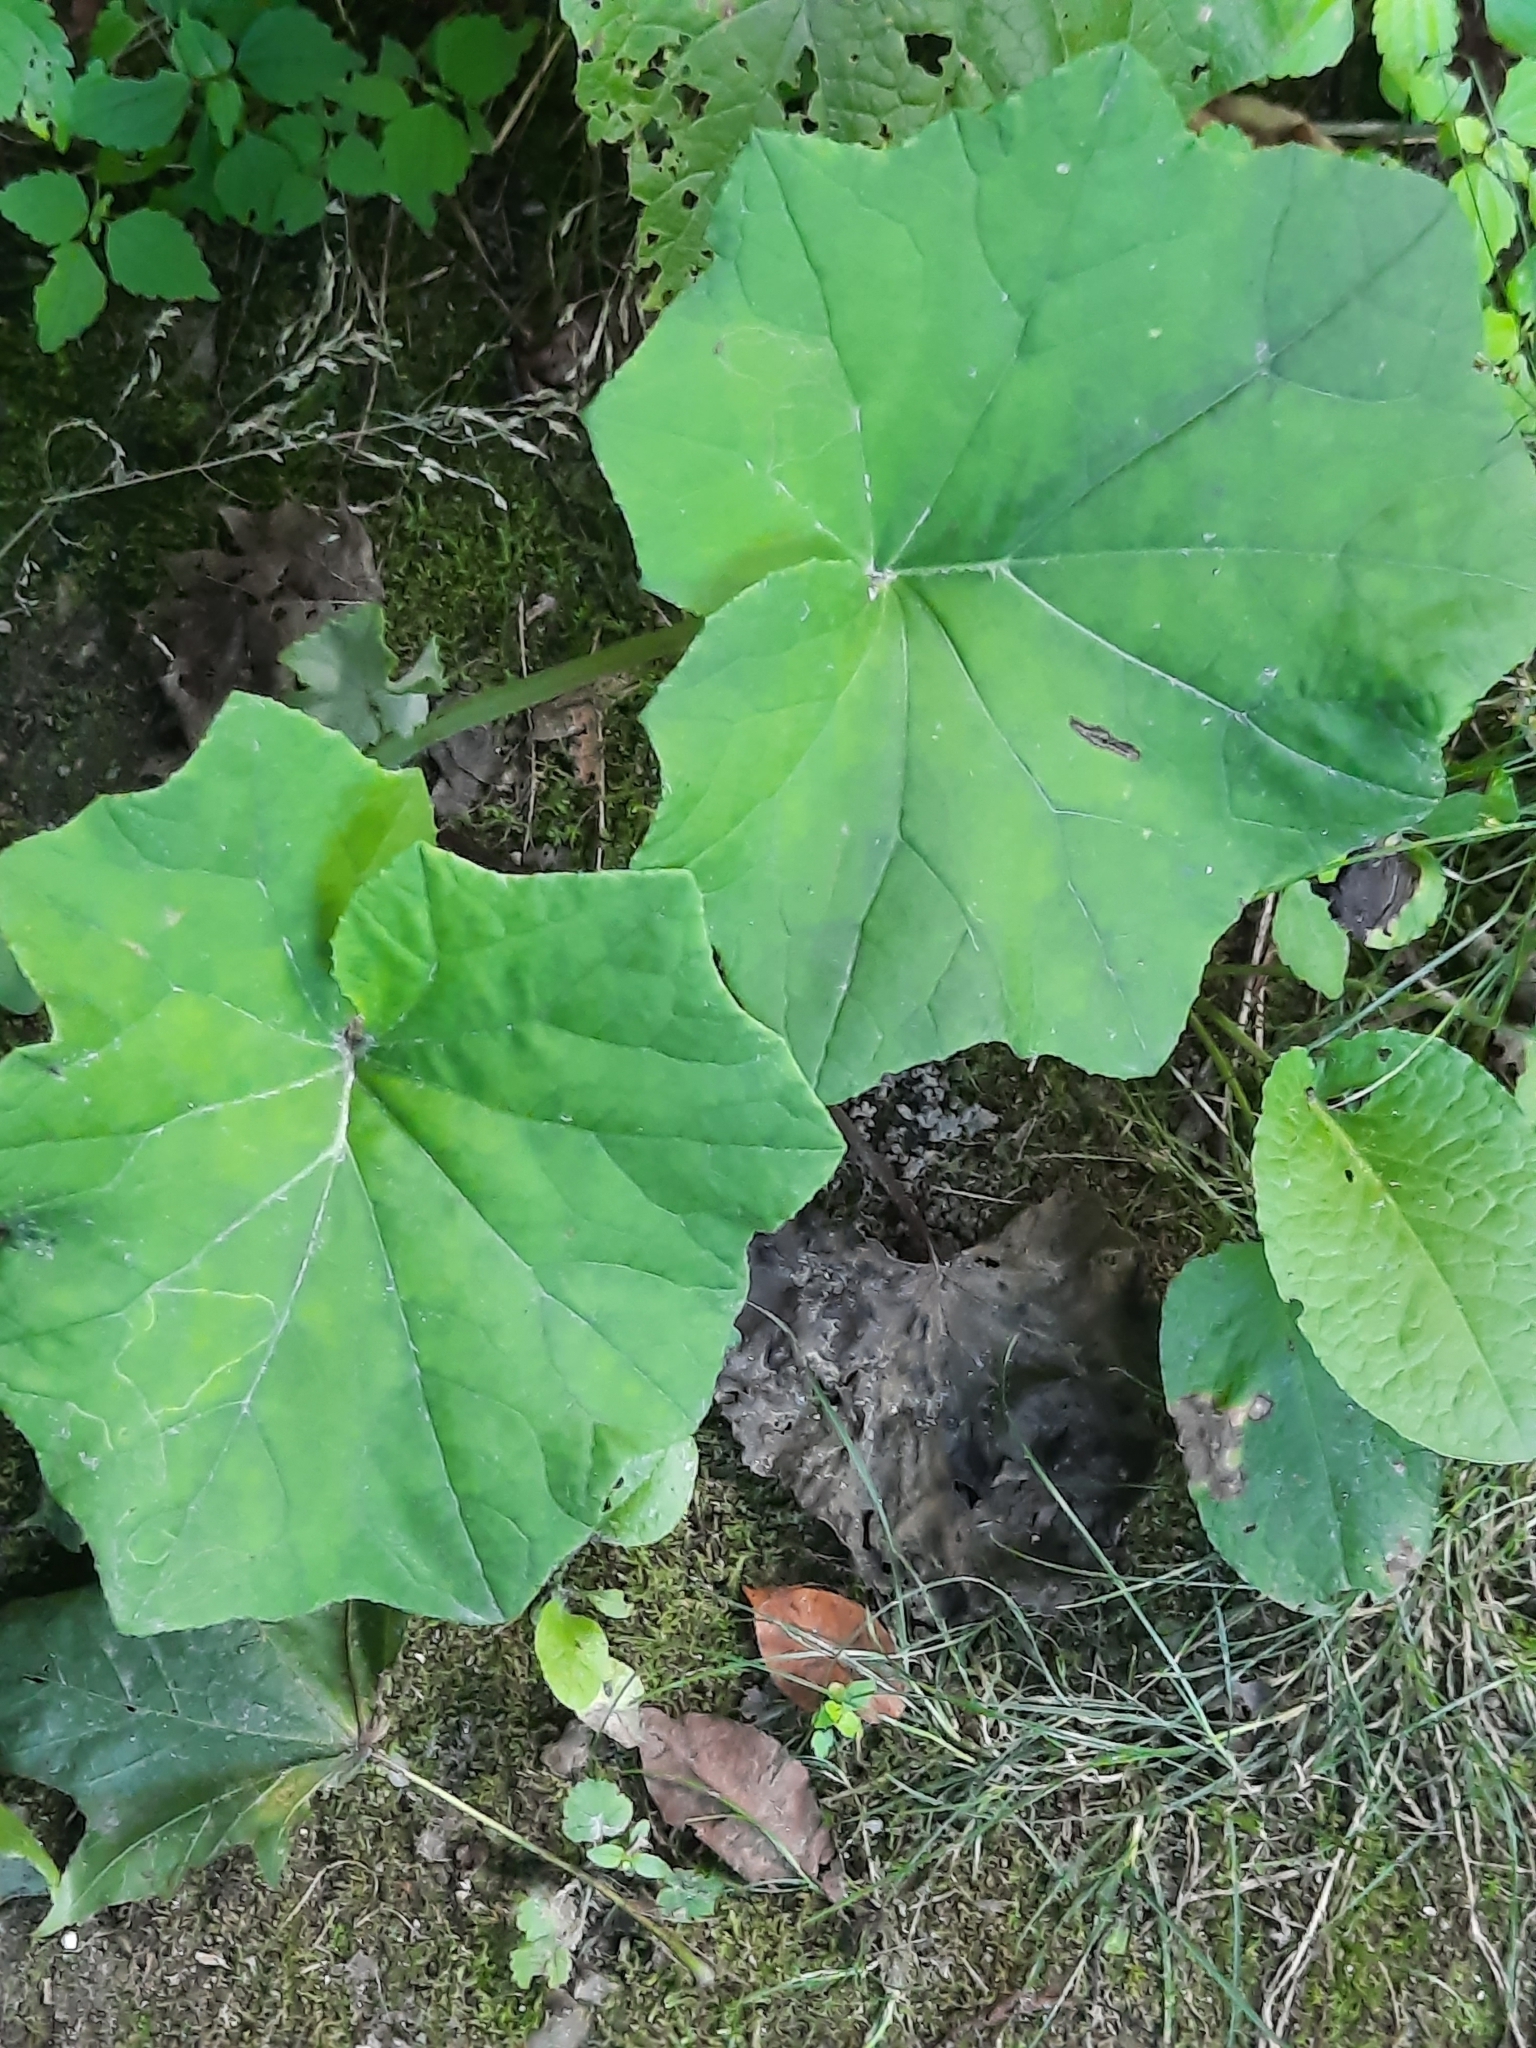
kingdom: Plantae
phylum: Tracheophyta
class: Magnoliopsida
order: Asterales
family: Asteraceae
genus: Tussilago
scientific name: Tussilago farfara
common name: Coltsfoot
